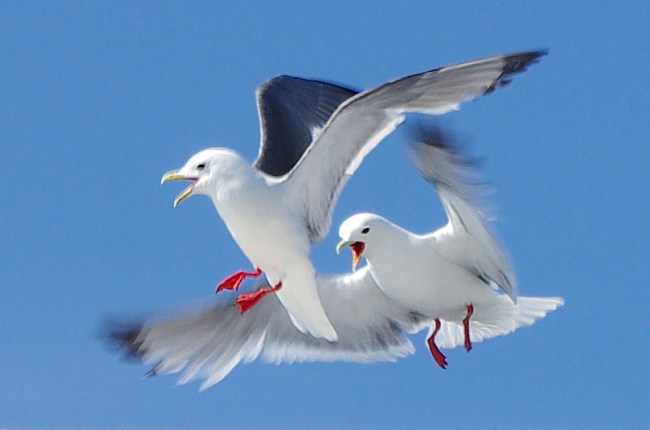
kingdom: Animalia
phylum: Chordata
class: Aves
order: Charadriiformes
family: Laridae
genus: Rissa
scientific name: Rissa brevirostris
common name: Red-legged kittiwake
